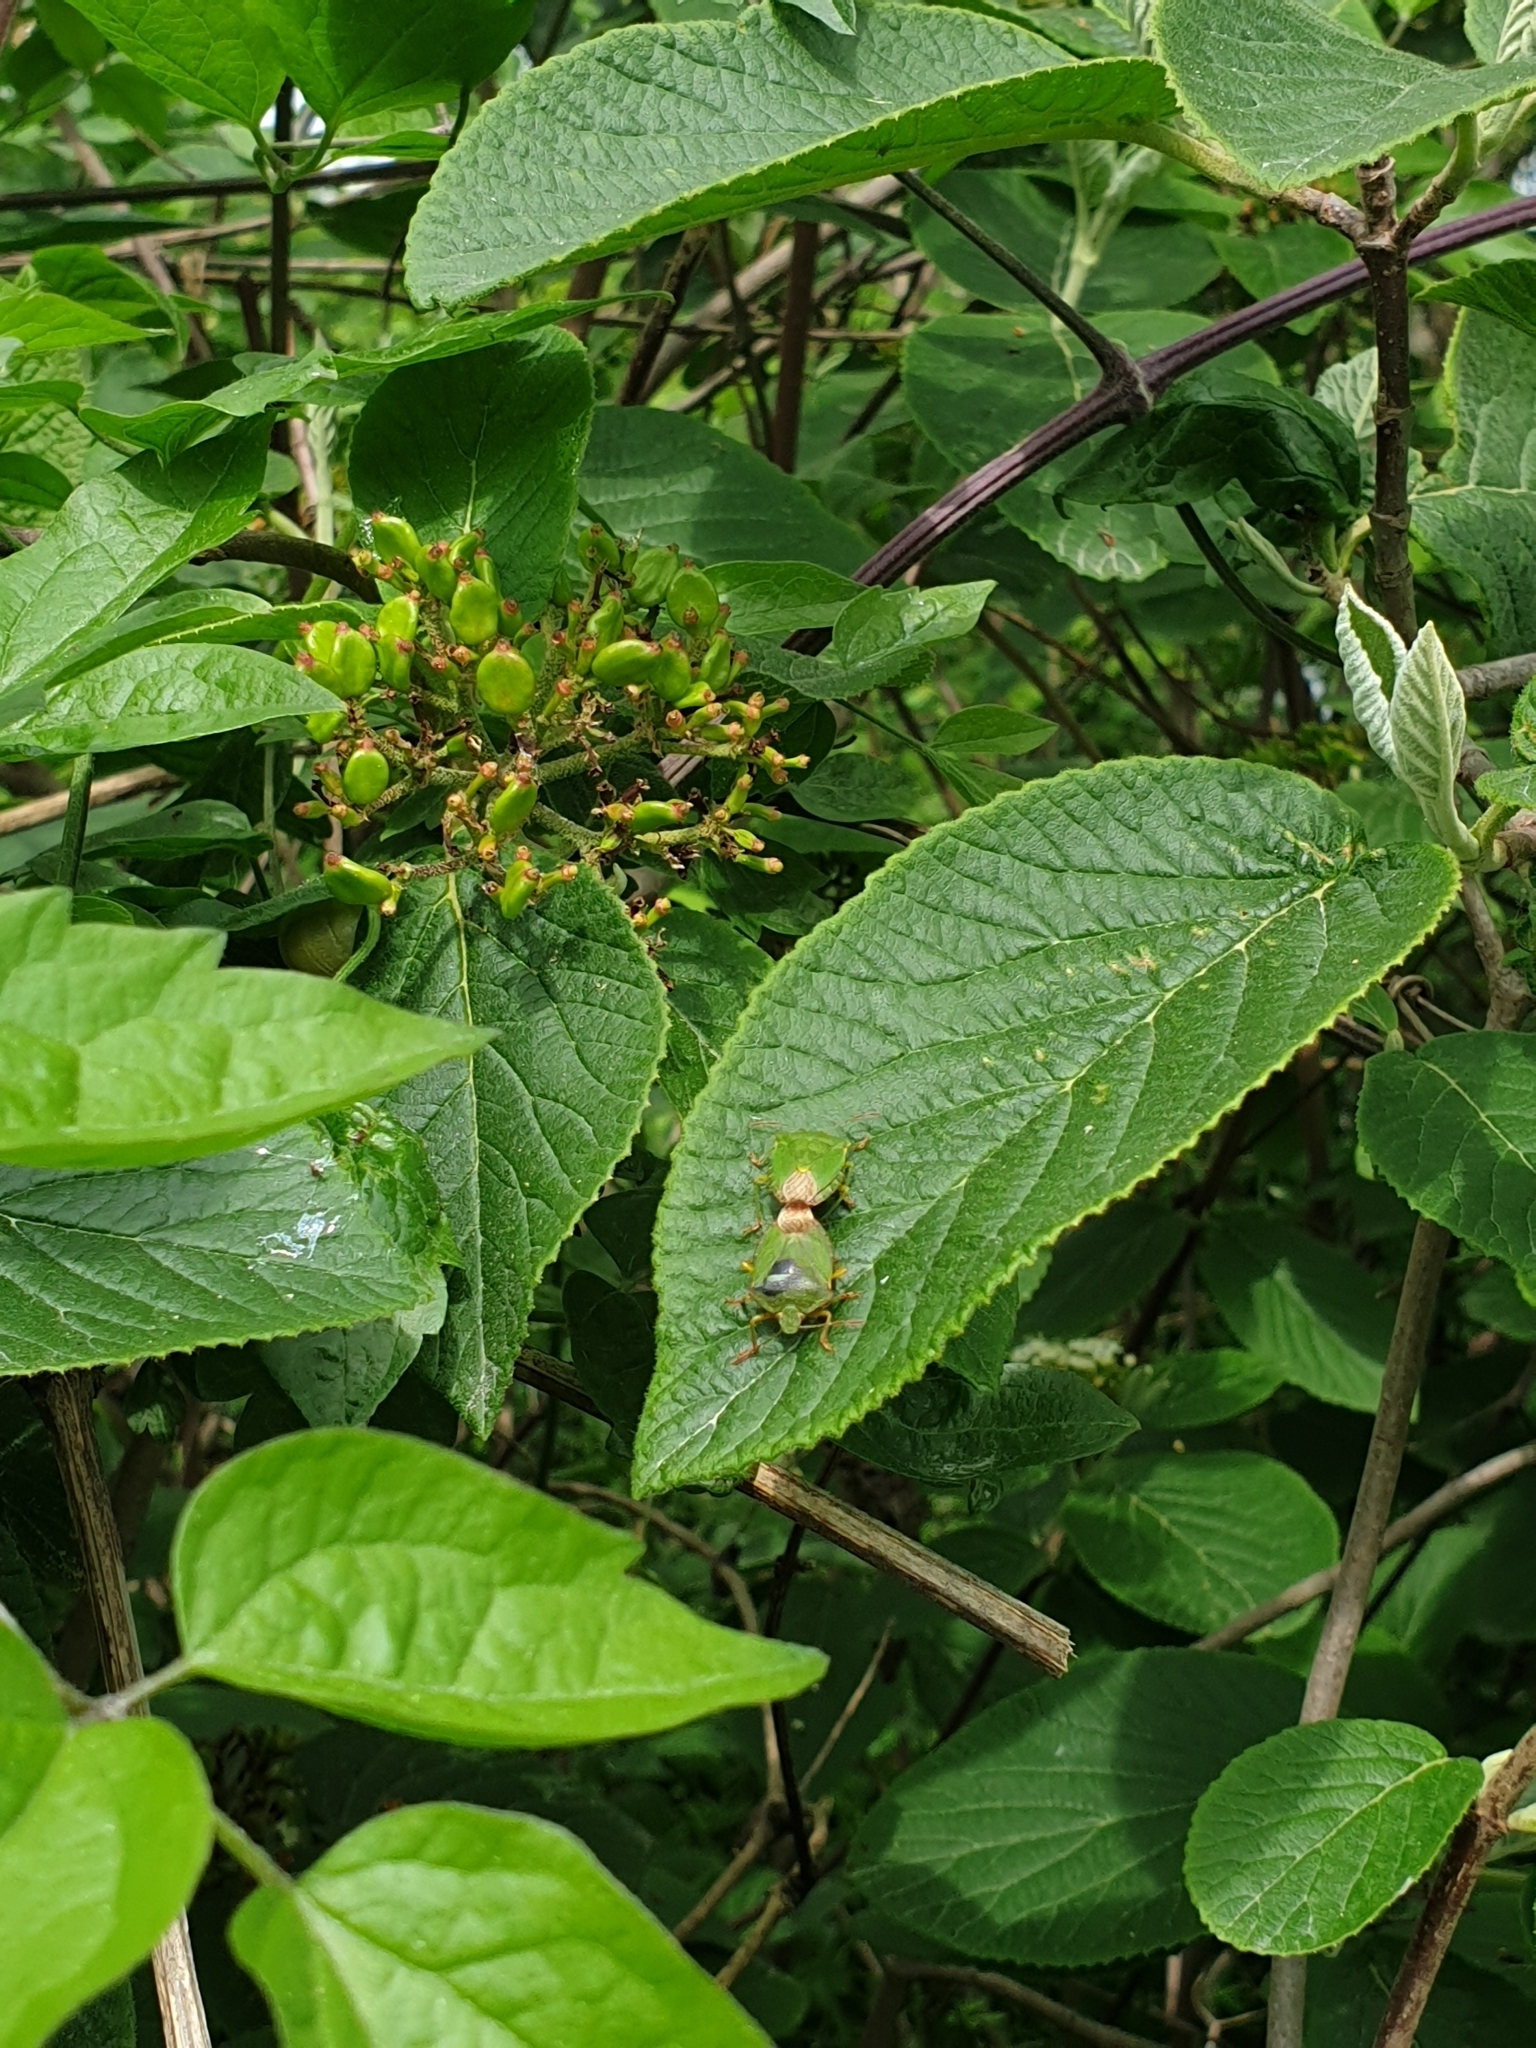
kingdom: Animalia
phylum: Arthropoda
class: Insecta
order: Hemiptera
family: Pentatomidae
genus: Palomena
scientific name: Palomena prasina
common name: Green shieldbug
